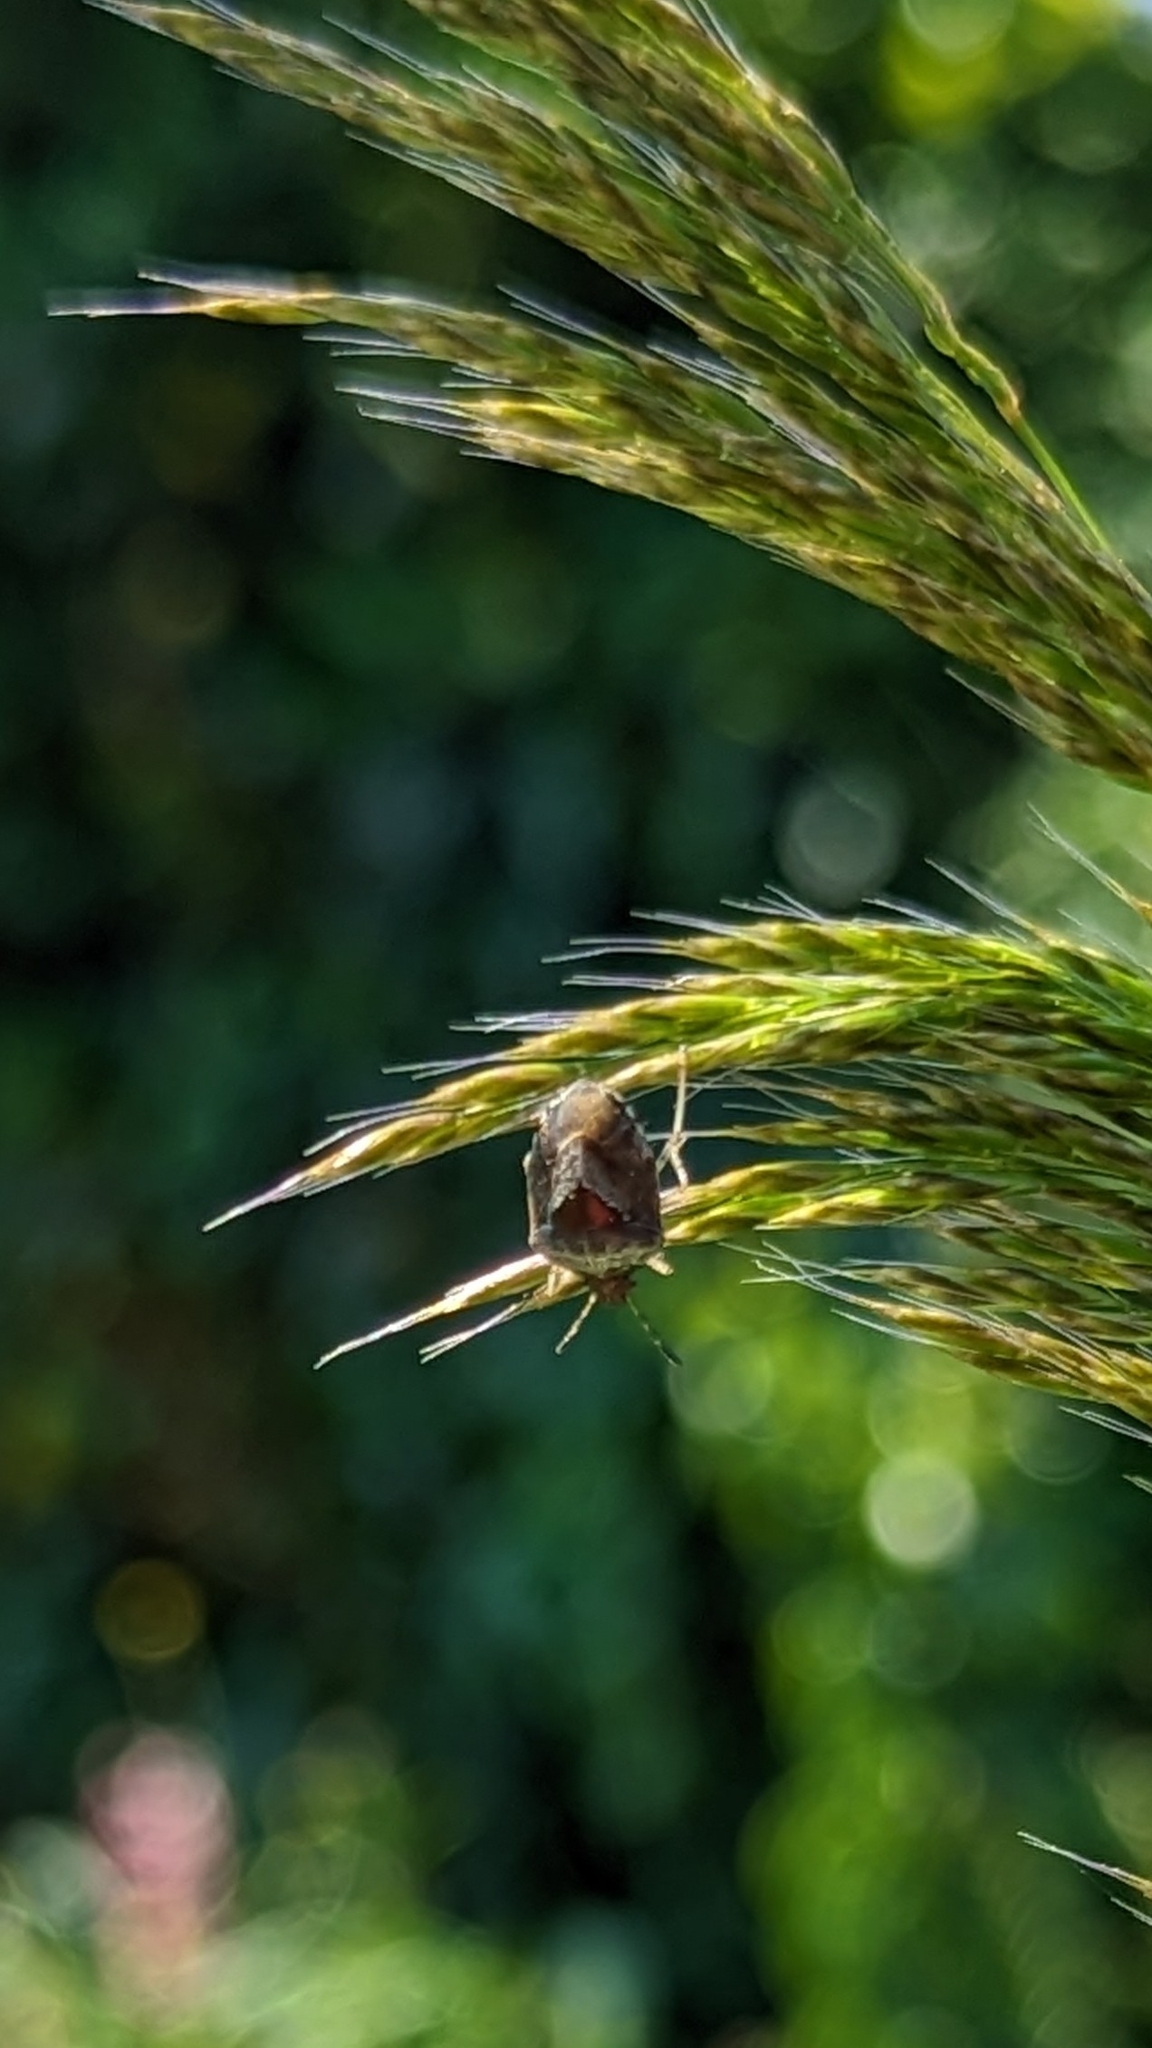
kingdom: Animalia
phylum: Arthropoda
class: Insecta
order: Hemiptera
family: Pentatomidae
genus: Eysarcoris
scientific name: Eysarcoris venustissimus
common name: Woundwort shieldbug
